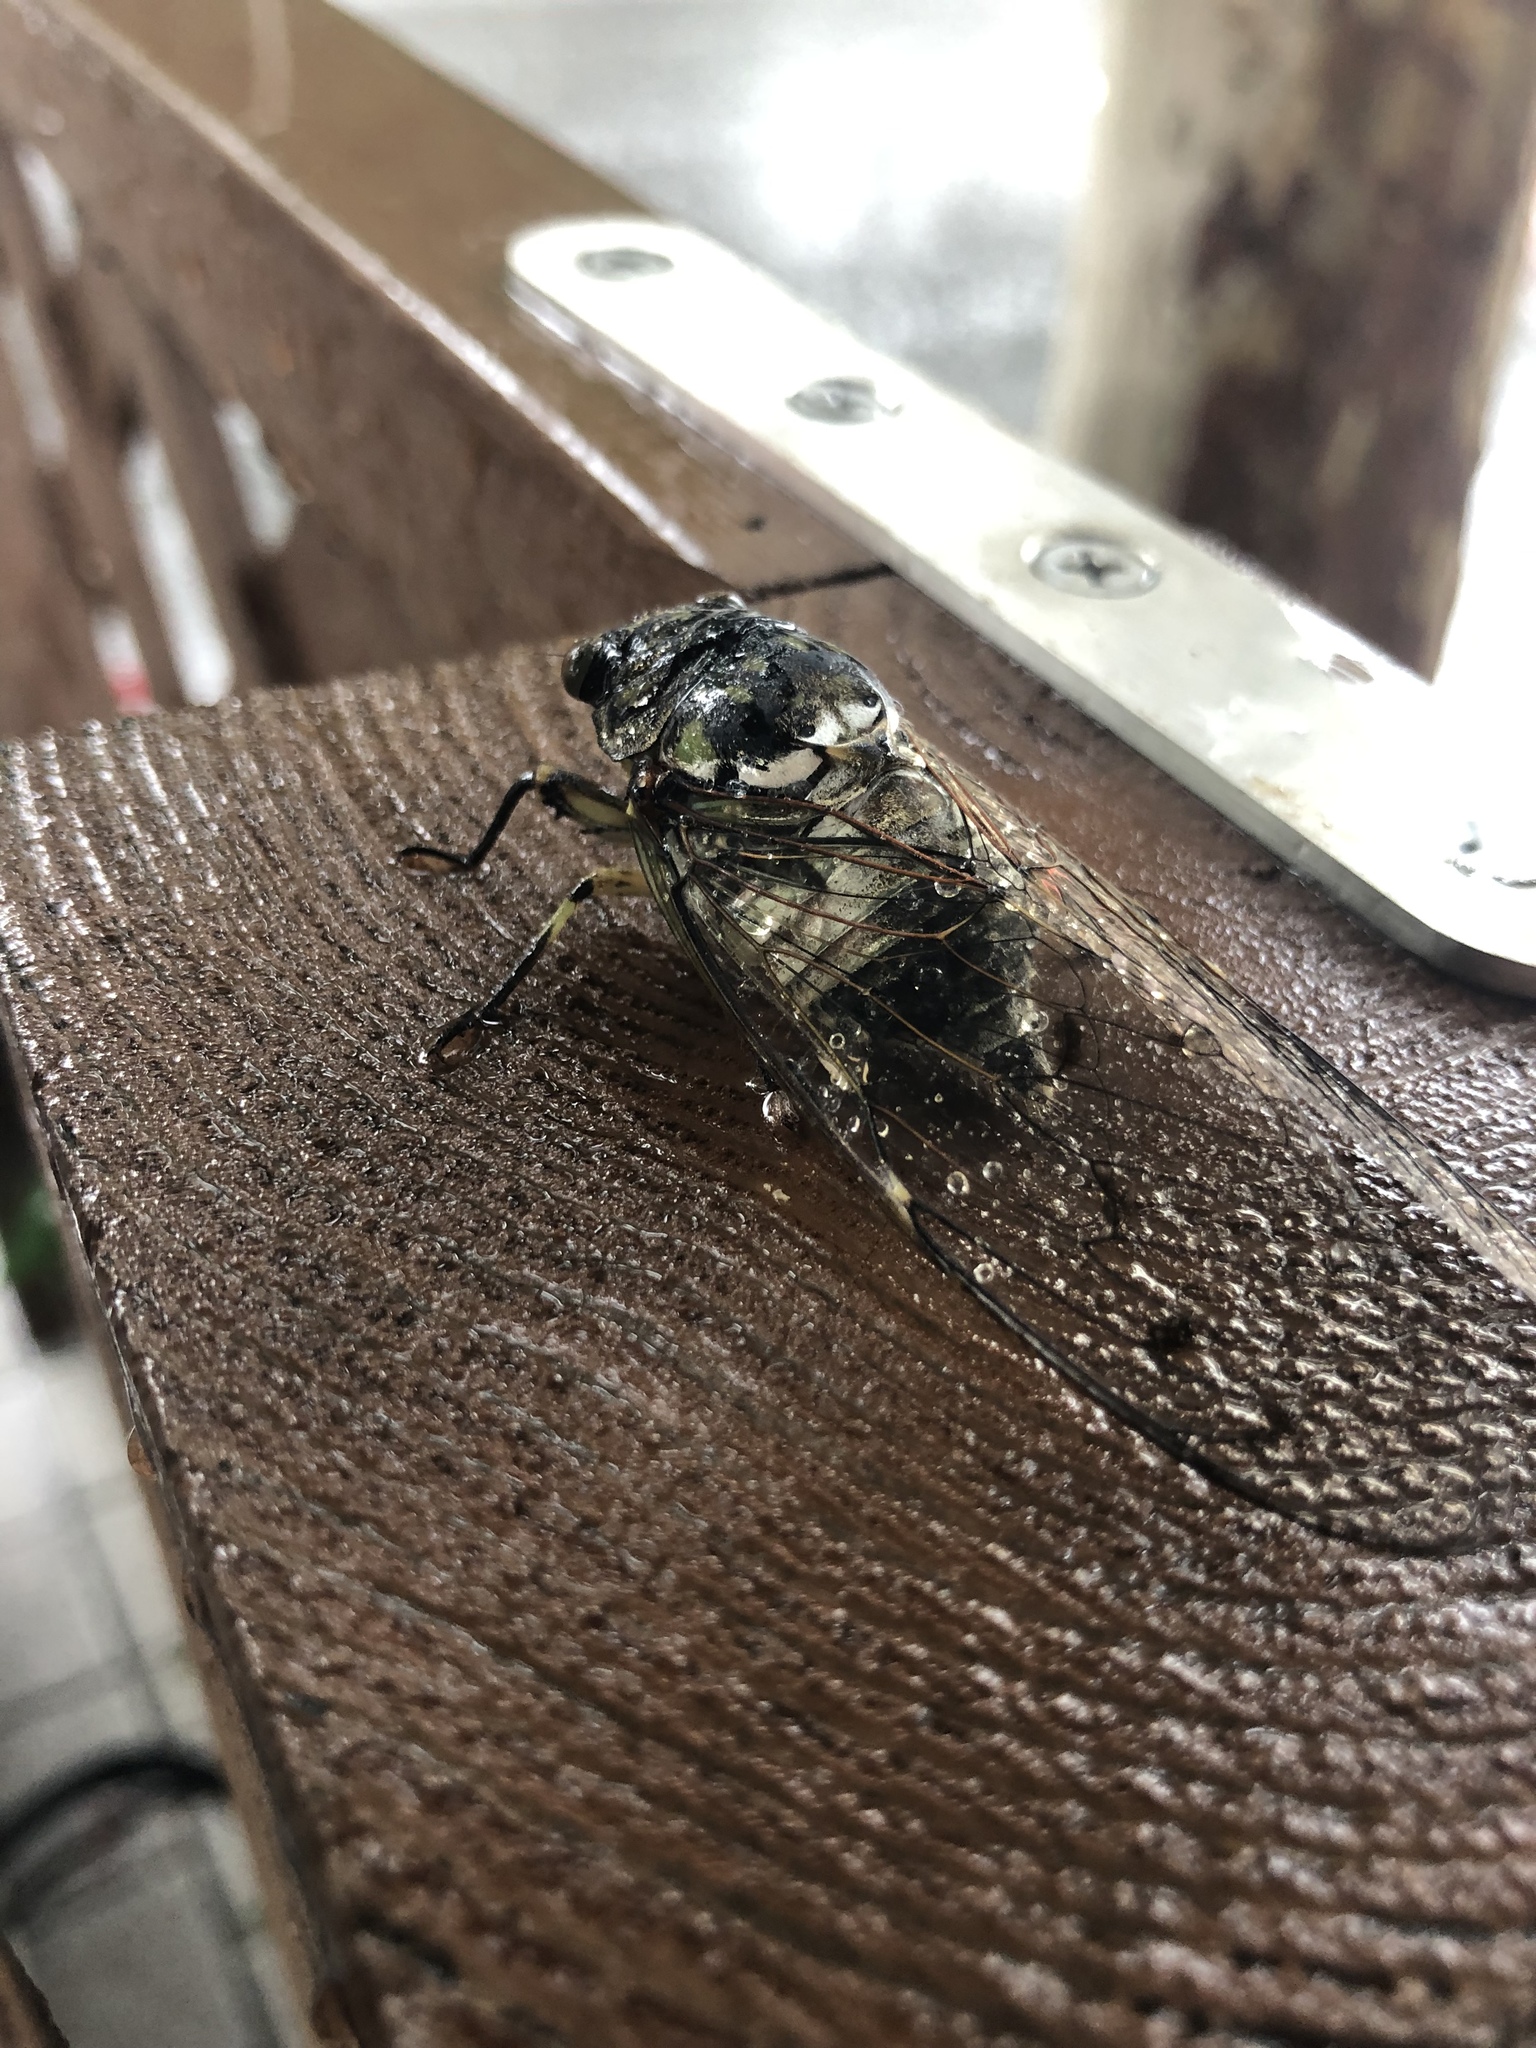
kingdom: Animalia
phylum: Arthropoda
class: Insecta
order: Hemiptera
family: Cicadidae
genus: Hyalessa
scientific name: Hyalessa maculaticollis
